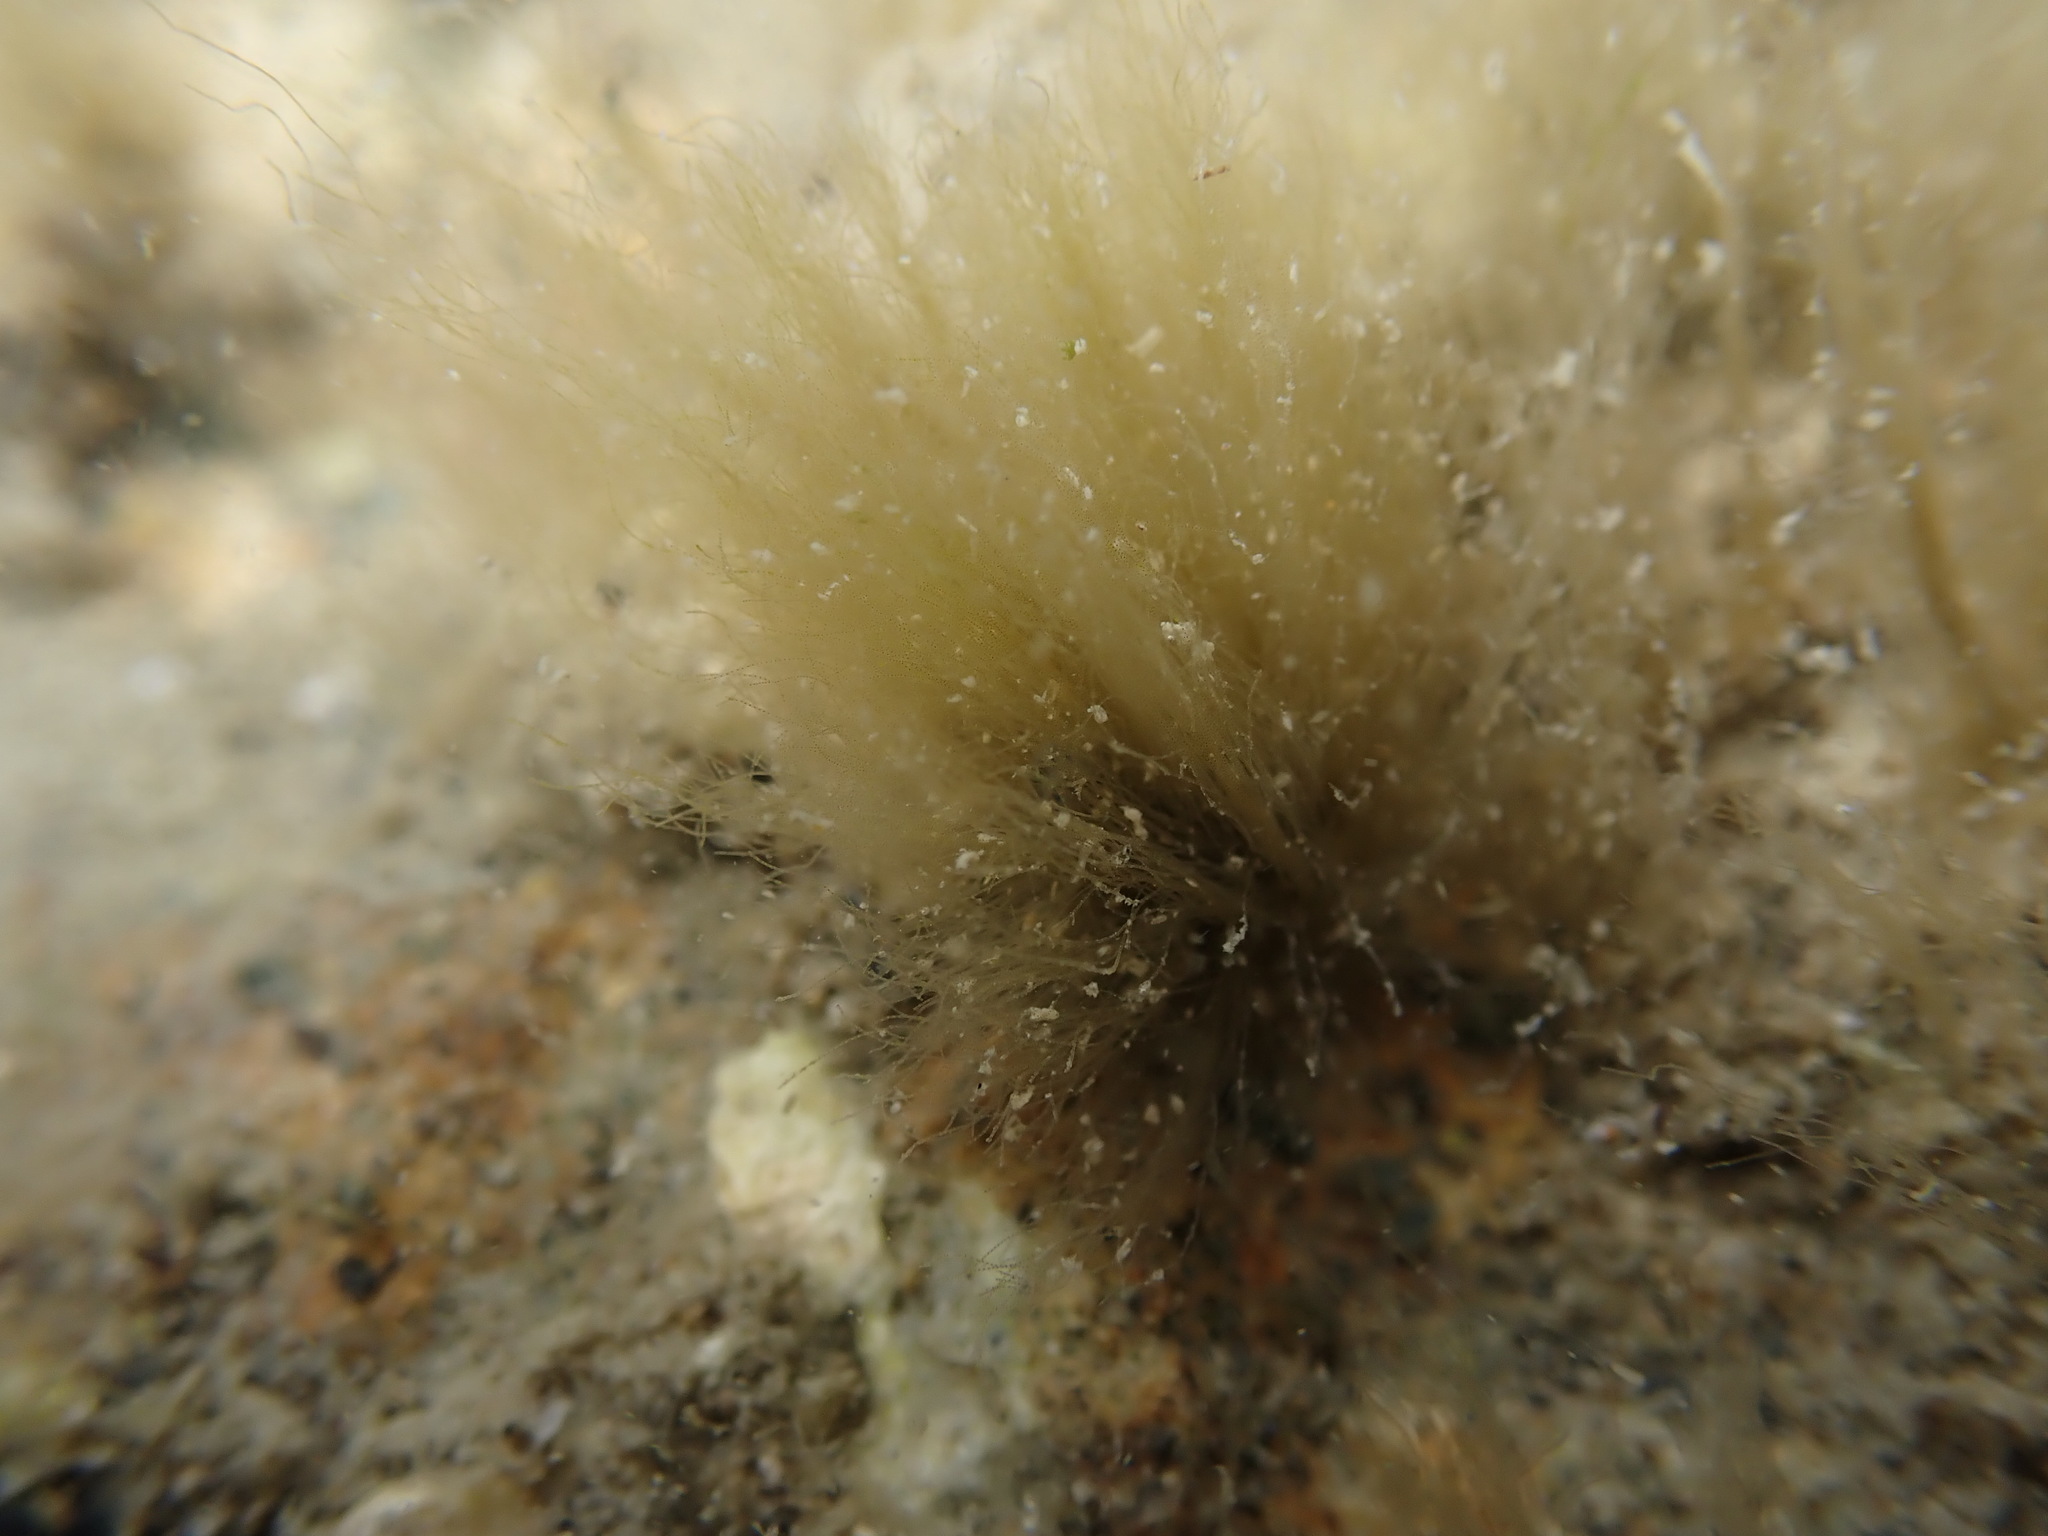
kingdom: Bacteria
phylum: Cyanobacteria
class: Cyanobacteriia
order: Cyanobacteriales
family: Microcoleaceae
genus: Lyngbya
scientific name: Lyngbya majuscula
